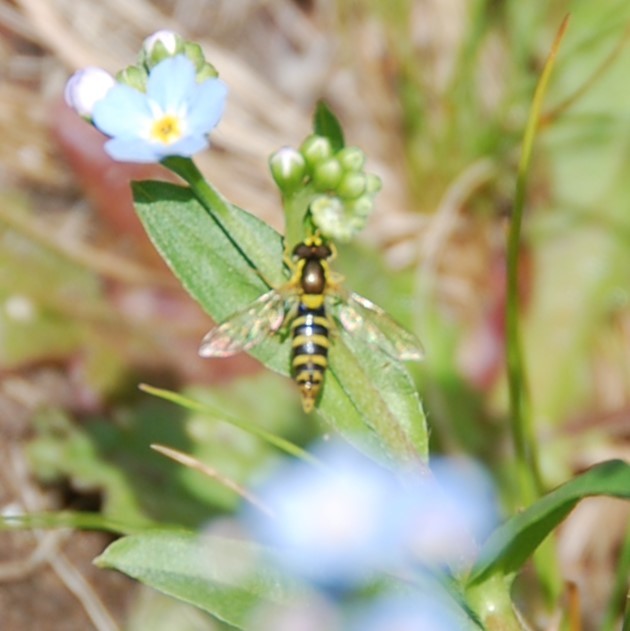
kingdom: Animalia
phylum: Arthropoda
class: Insecta
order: Diptera
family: Syrphidae
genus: Sphaerophoria
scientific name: Sphaerophoria
